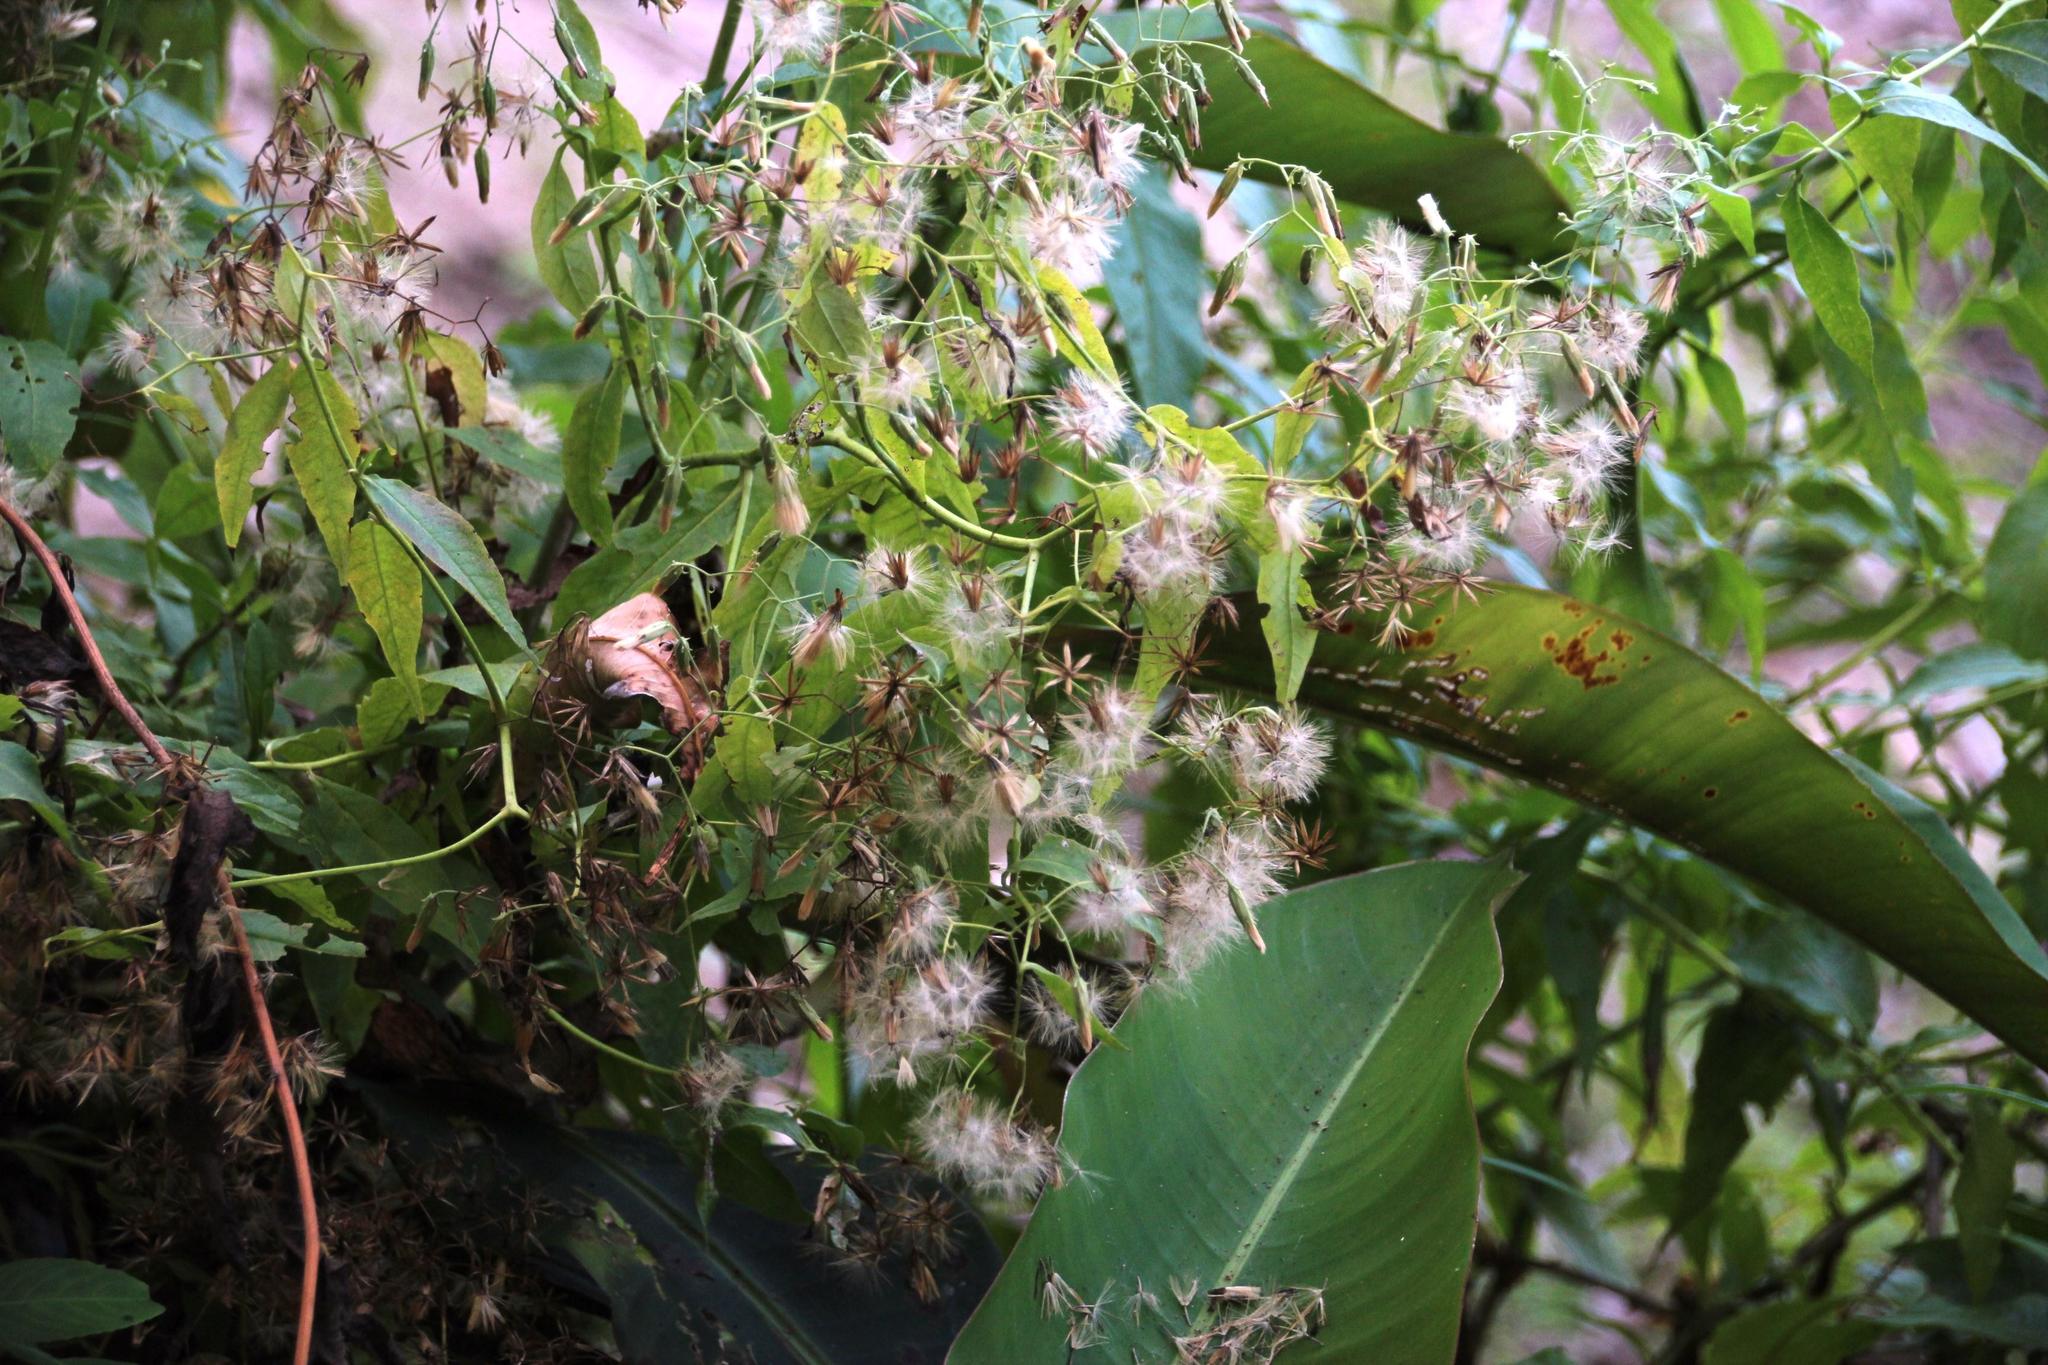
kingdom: Plantae
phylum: Tracheophyta
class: Magnoliopsida
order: Asterales
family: Asteraceae
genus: Trixis
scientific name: Trixis divaricata
